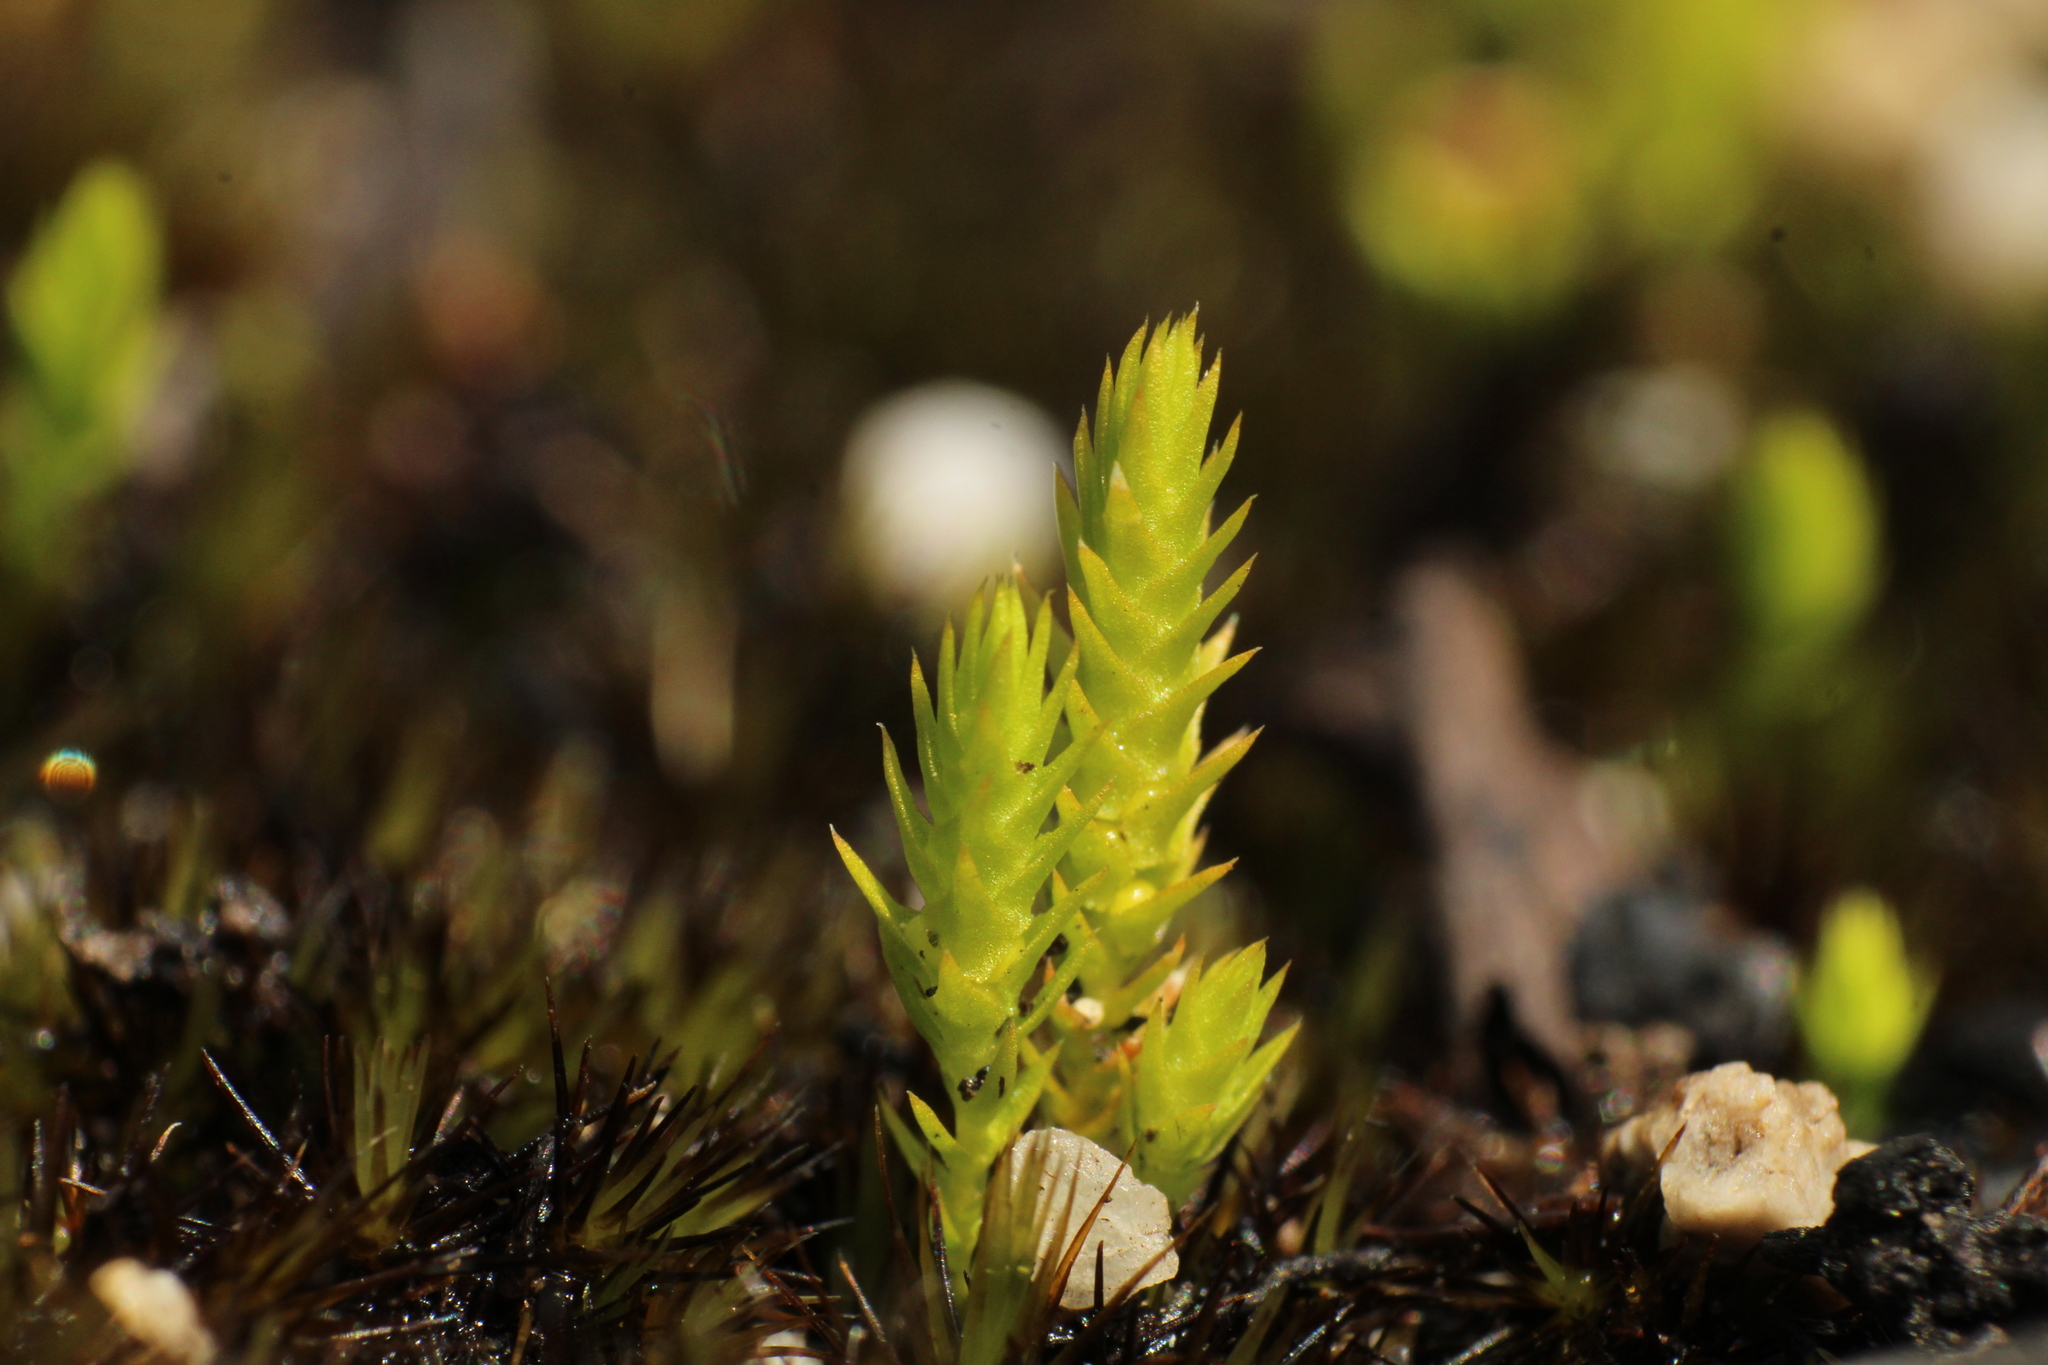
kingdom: Plantae
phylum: Tracheophyta
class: Lycopodiopsida
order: Selaginellales
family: Selaginellaceae
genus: Selaginella
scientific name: Selaginella gracillima
